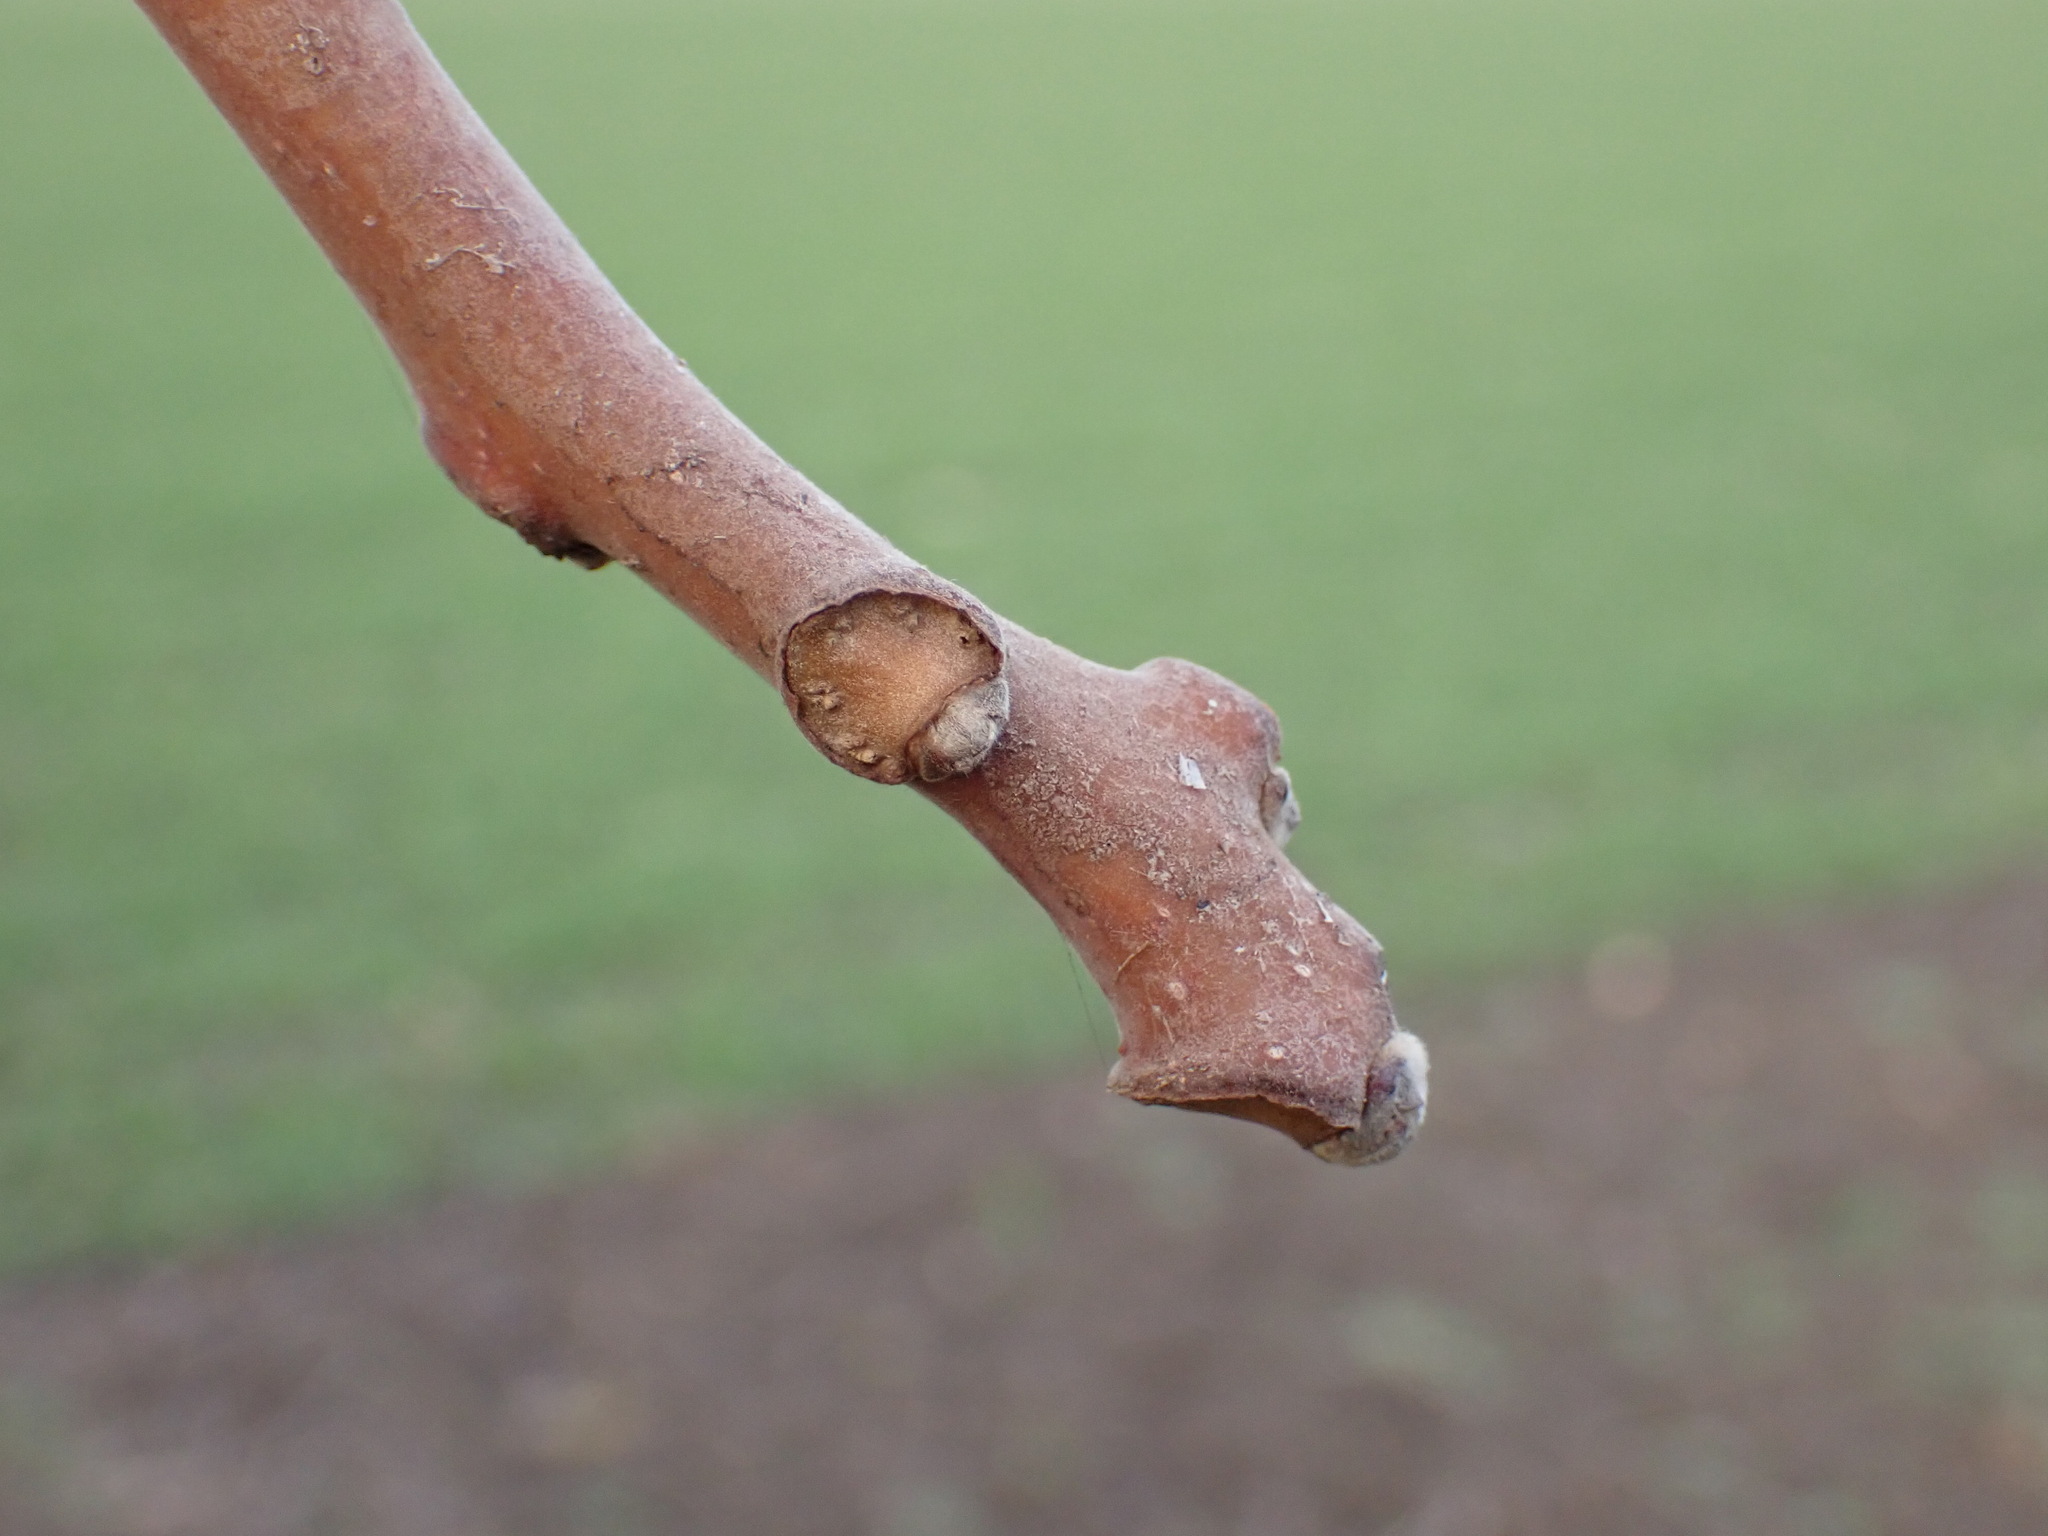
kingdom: Plantae
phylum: Tracheophyta
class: Magnoliopsida
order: Sapindales
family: Simaroubaceae
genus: Ailanthus
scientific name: Ailanthus altissima
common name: Tree-of-heaven
